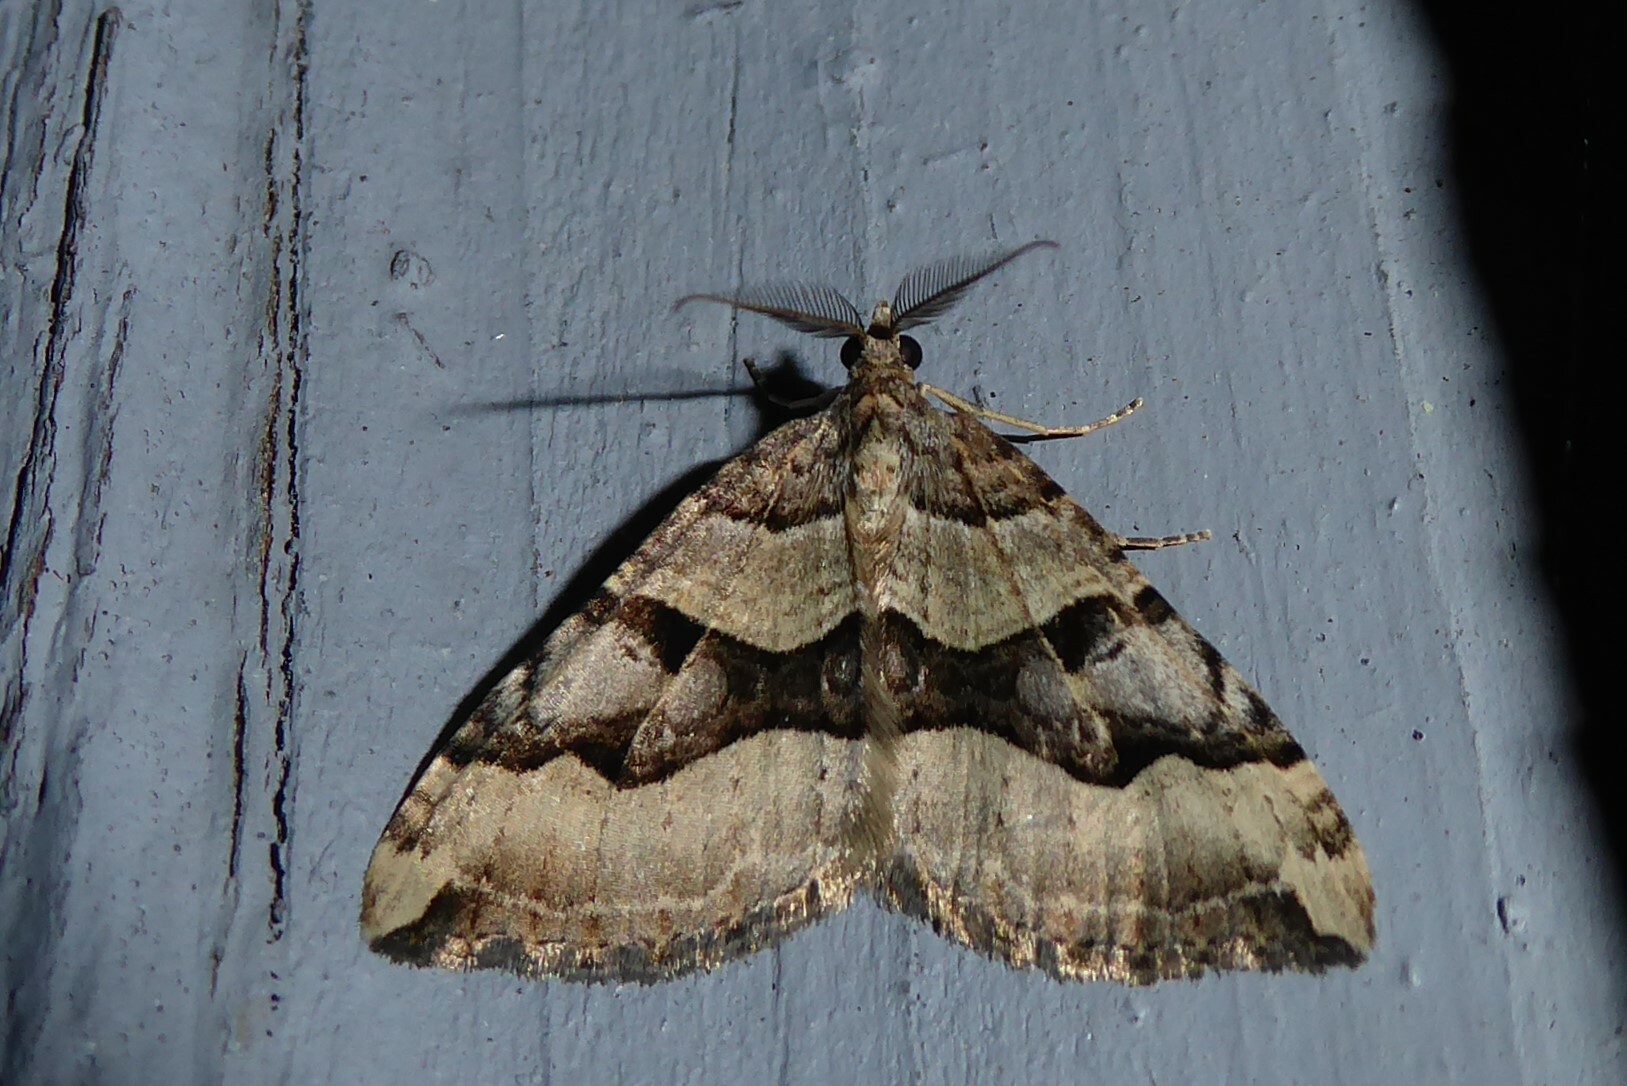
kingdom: Animalia
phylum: Arthropoda
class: Insecta
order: Lepidoptera
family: Geometridae
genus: Xanthorhoe
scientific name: Xanthorhoe semifissata
